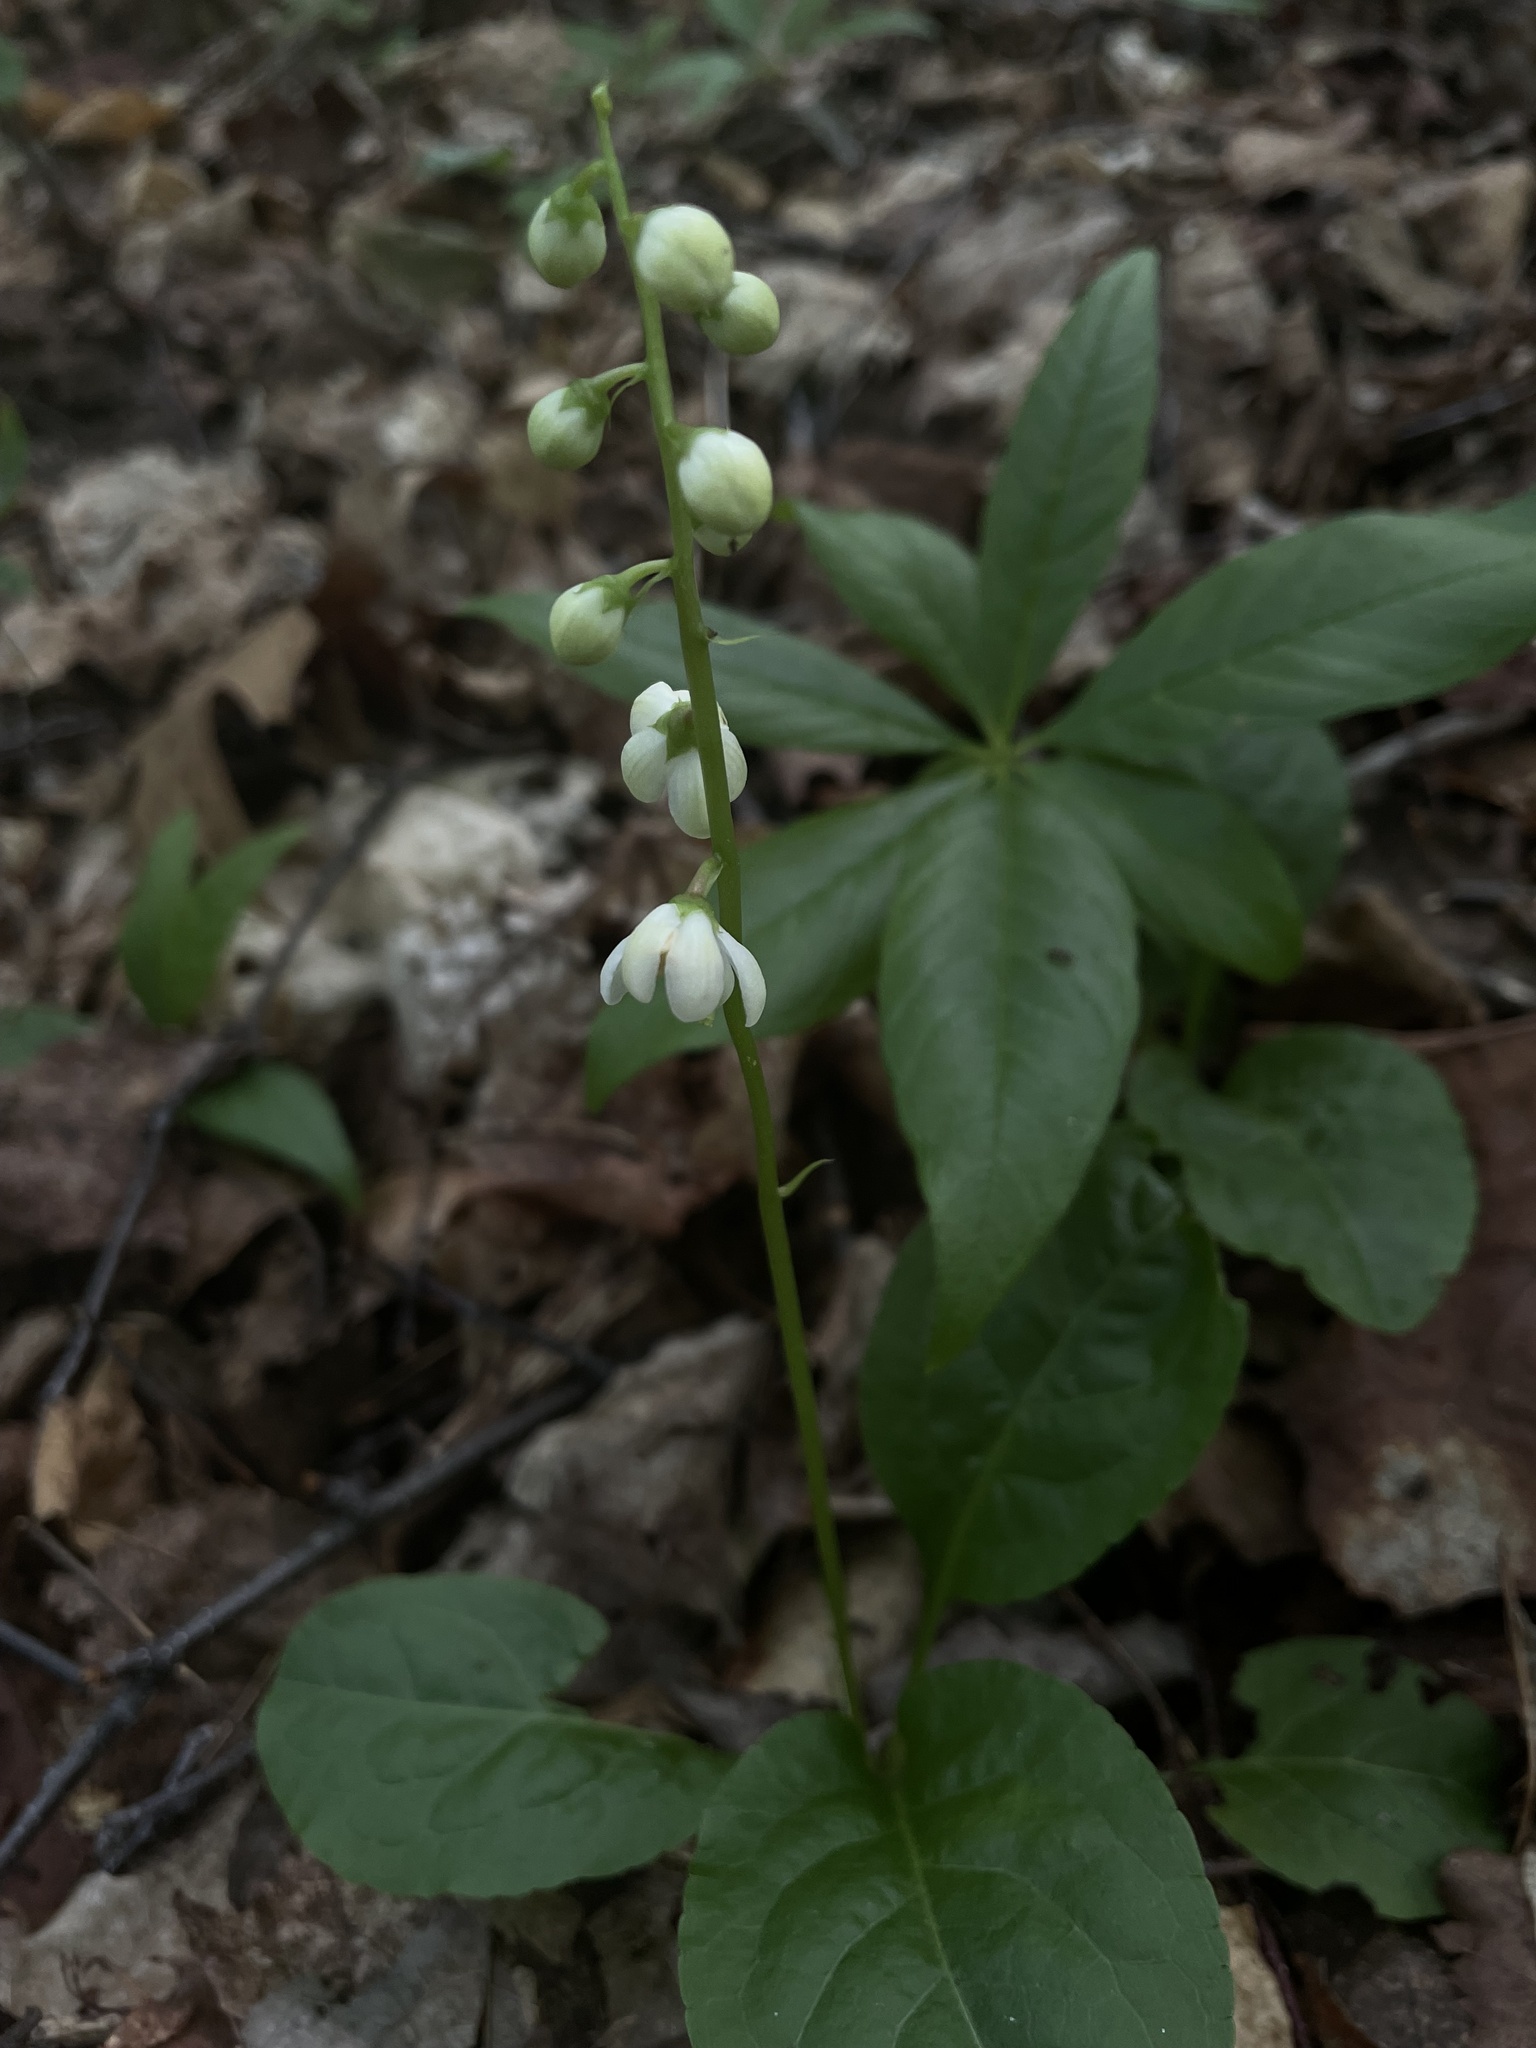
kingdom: Plantae
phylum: Tracheophyta
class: Magnoliopsida
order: Ericales
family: Ericaceae
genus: Pyrola
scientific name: Pyrola elliptica
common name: Shinleaf
